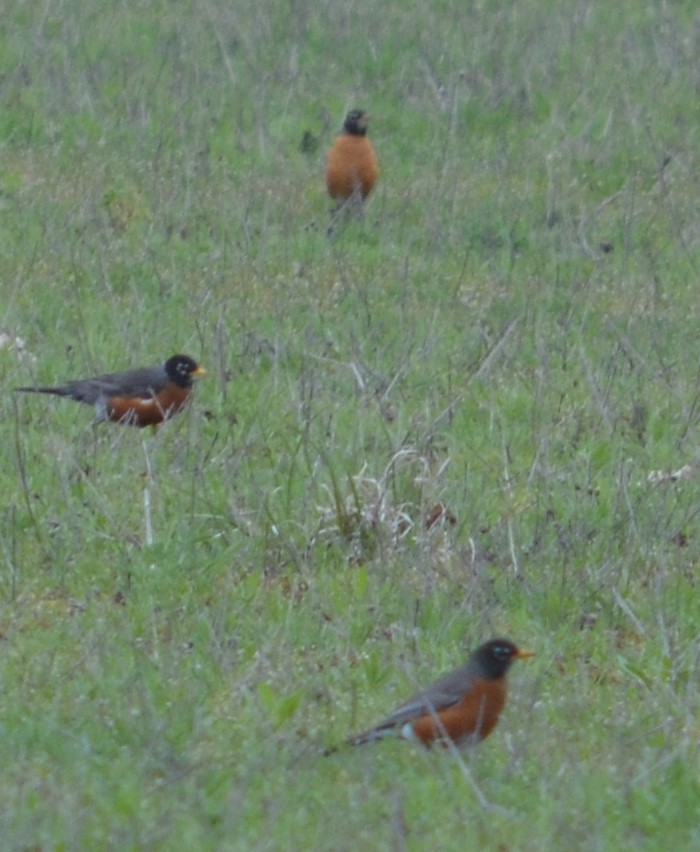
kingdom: Animalia
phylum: Chordata
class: Aves
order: Passeriformes
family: Turdidae
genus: Turdus
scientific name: Turdus migratorius
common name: American robin
